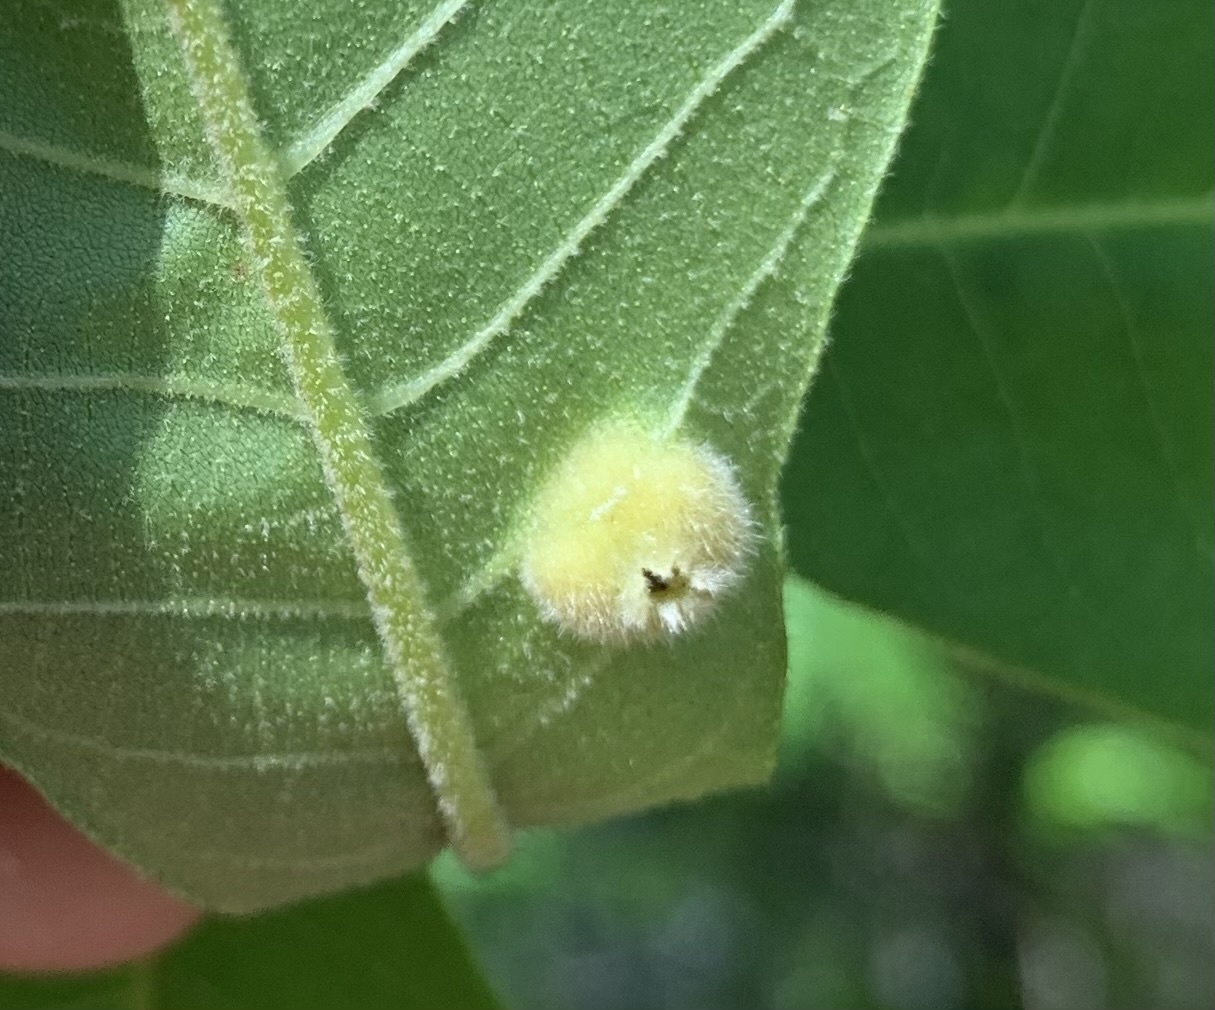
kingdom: Animalia
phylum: Arthropoda
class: Insecta
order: Hemiptera
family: Phylloxeridae
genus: Phylloxera
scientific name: Phylloxera caryae-avellana
